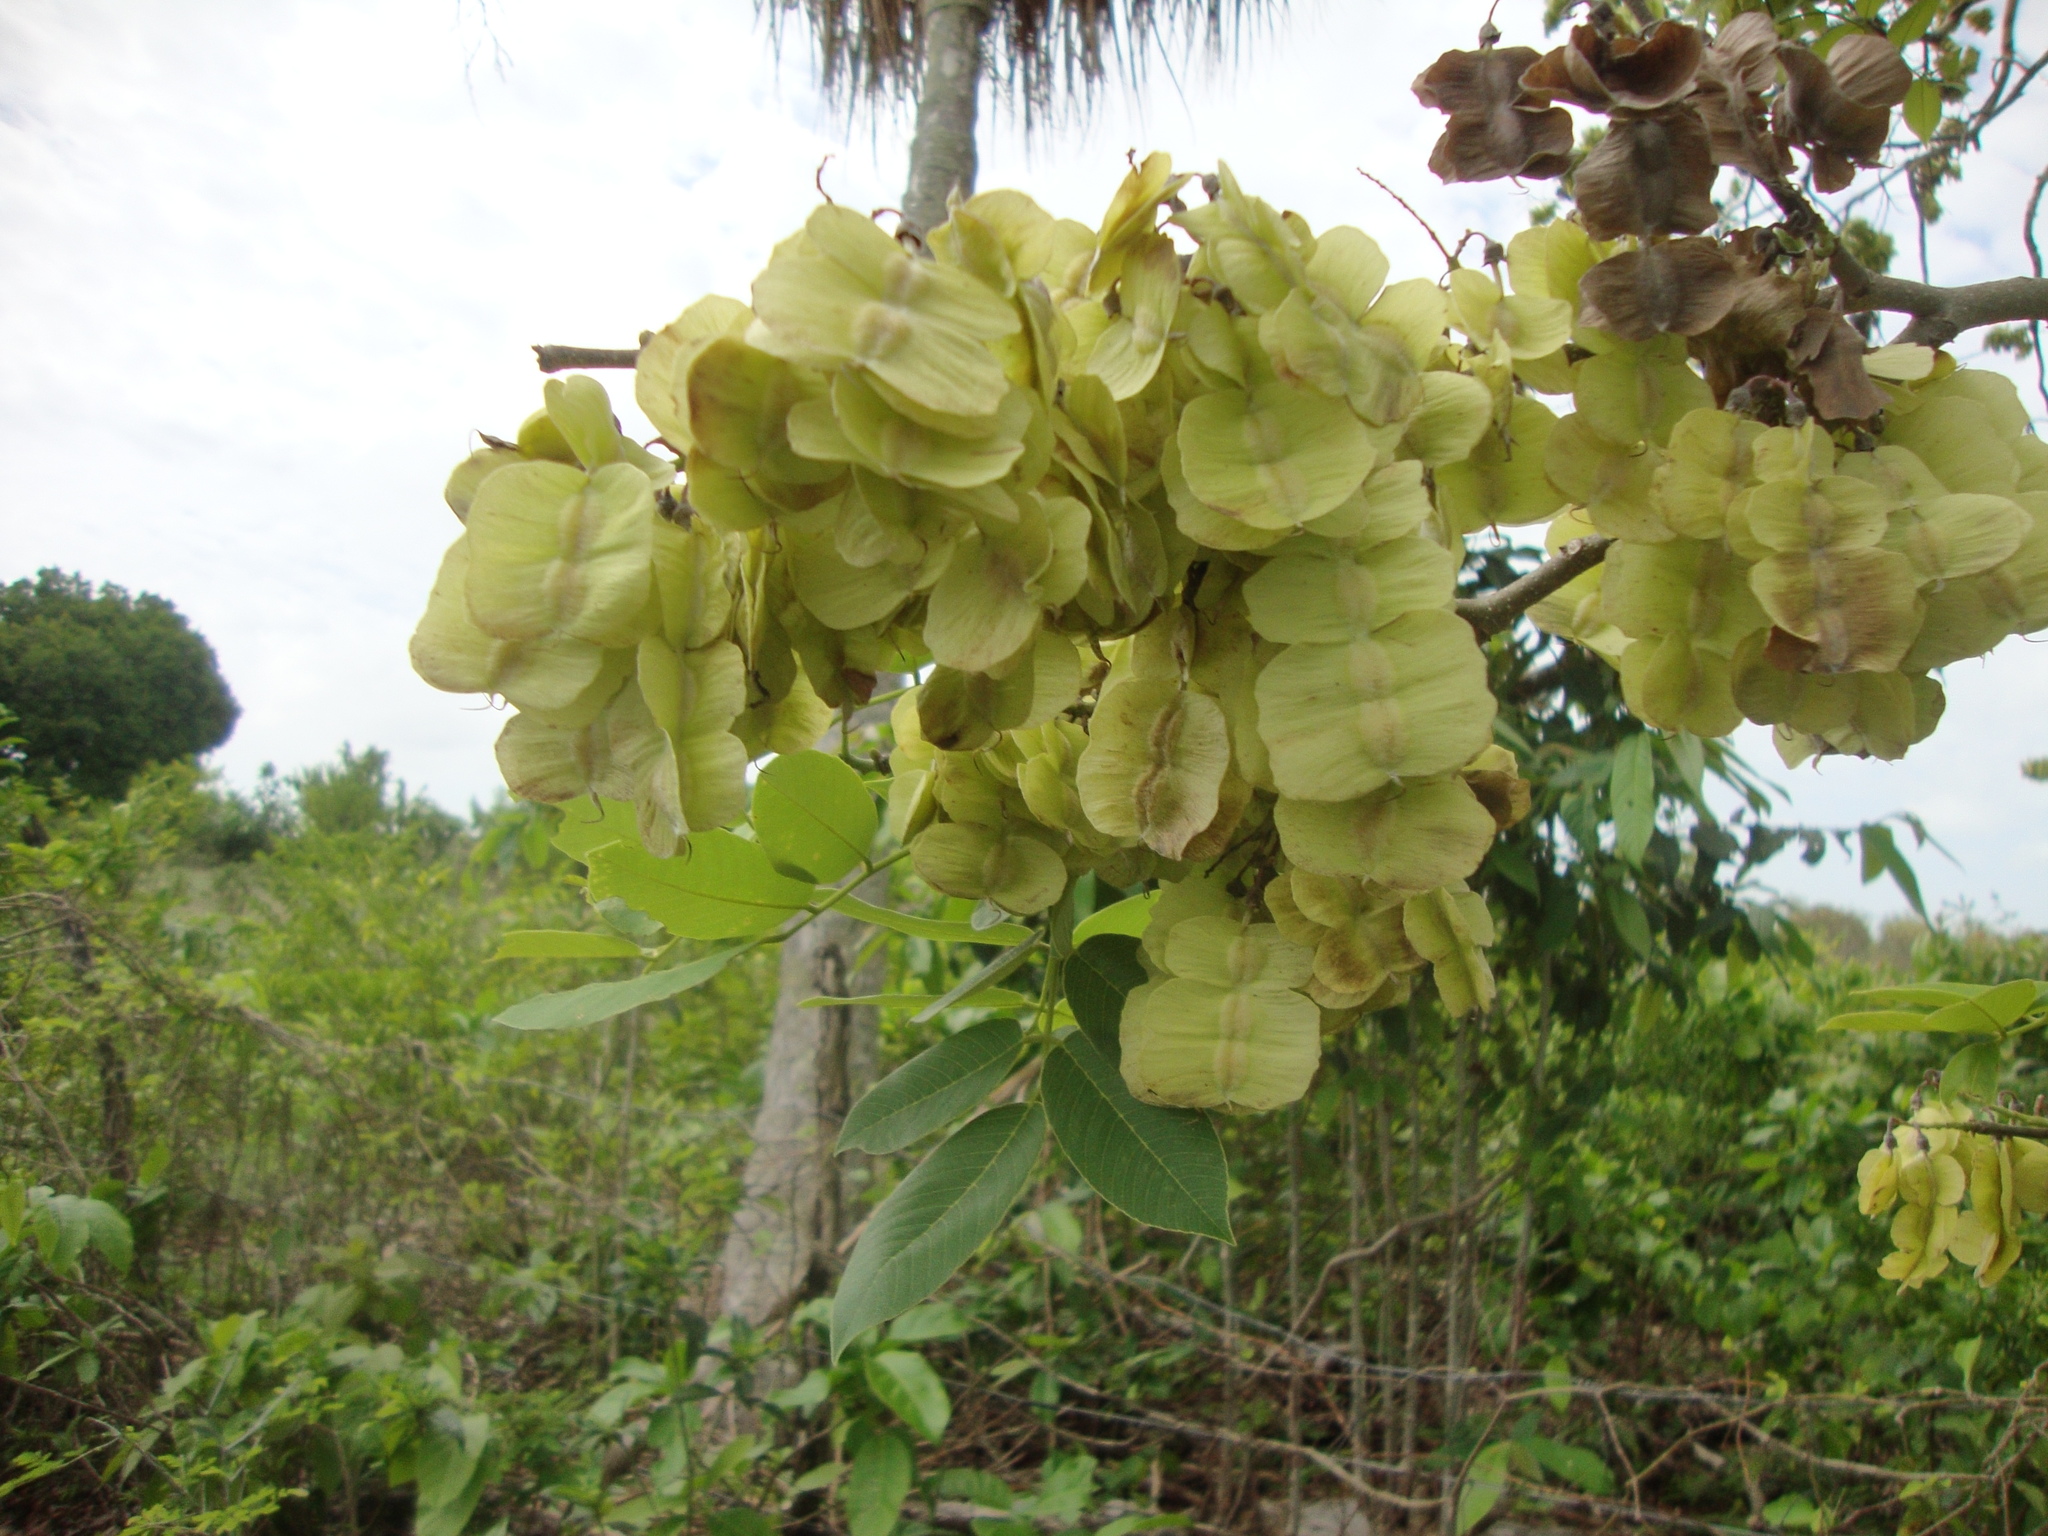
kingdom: Plantae
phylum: Tracheophyta
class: Magnoliopsida
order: Fabales
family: Fabaceae
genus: Piscidia
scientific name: Piscidia piscipula
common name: Florida fishpoison tree
